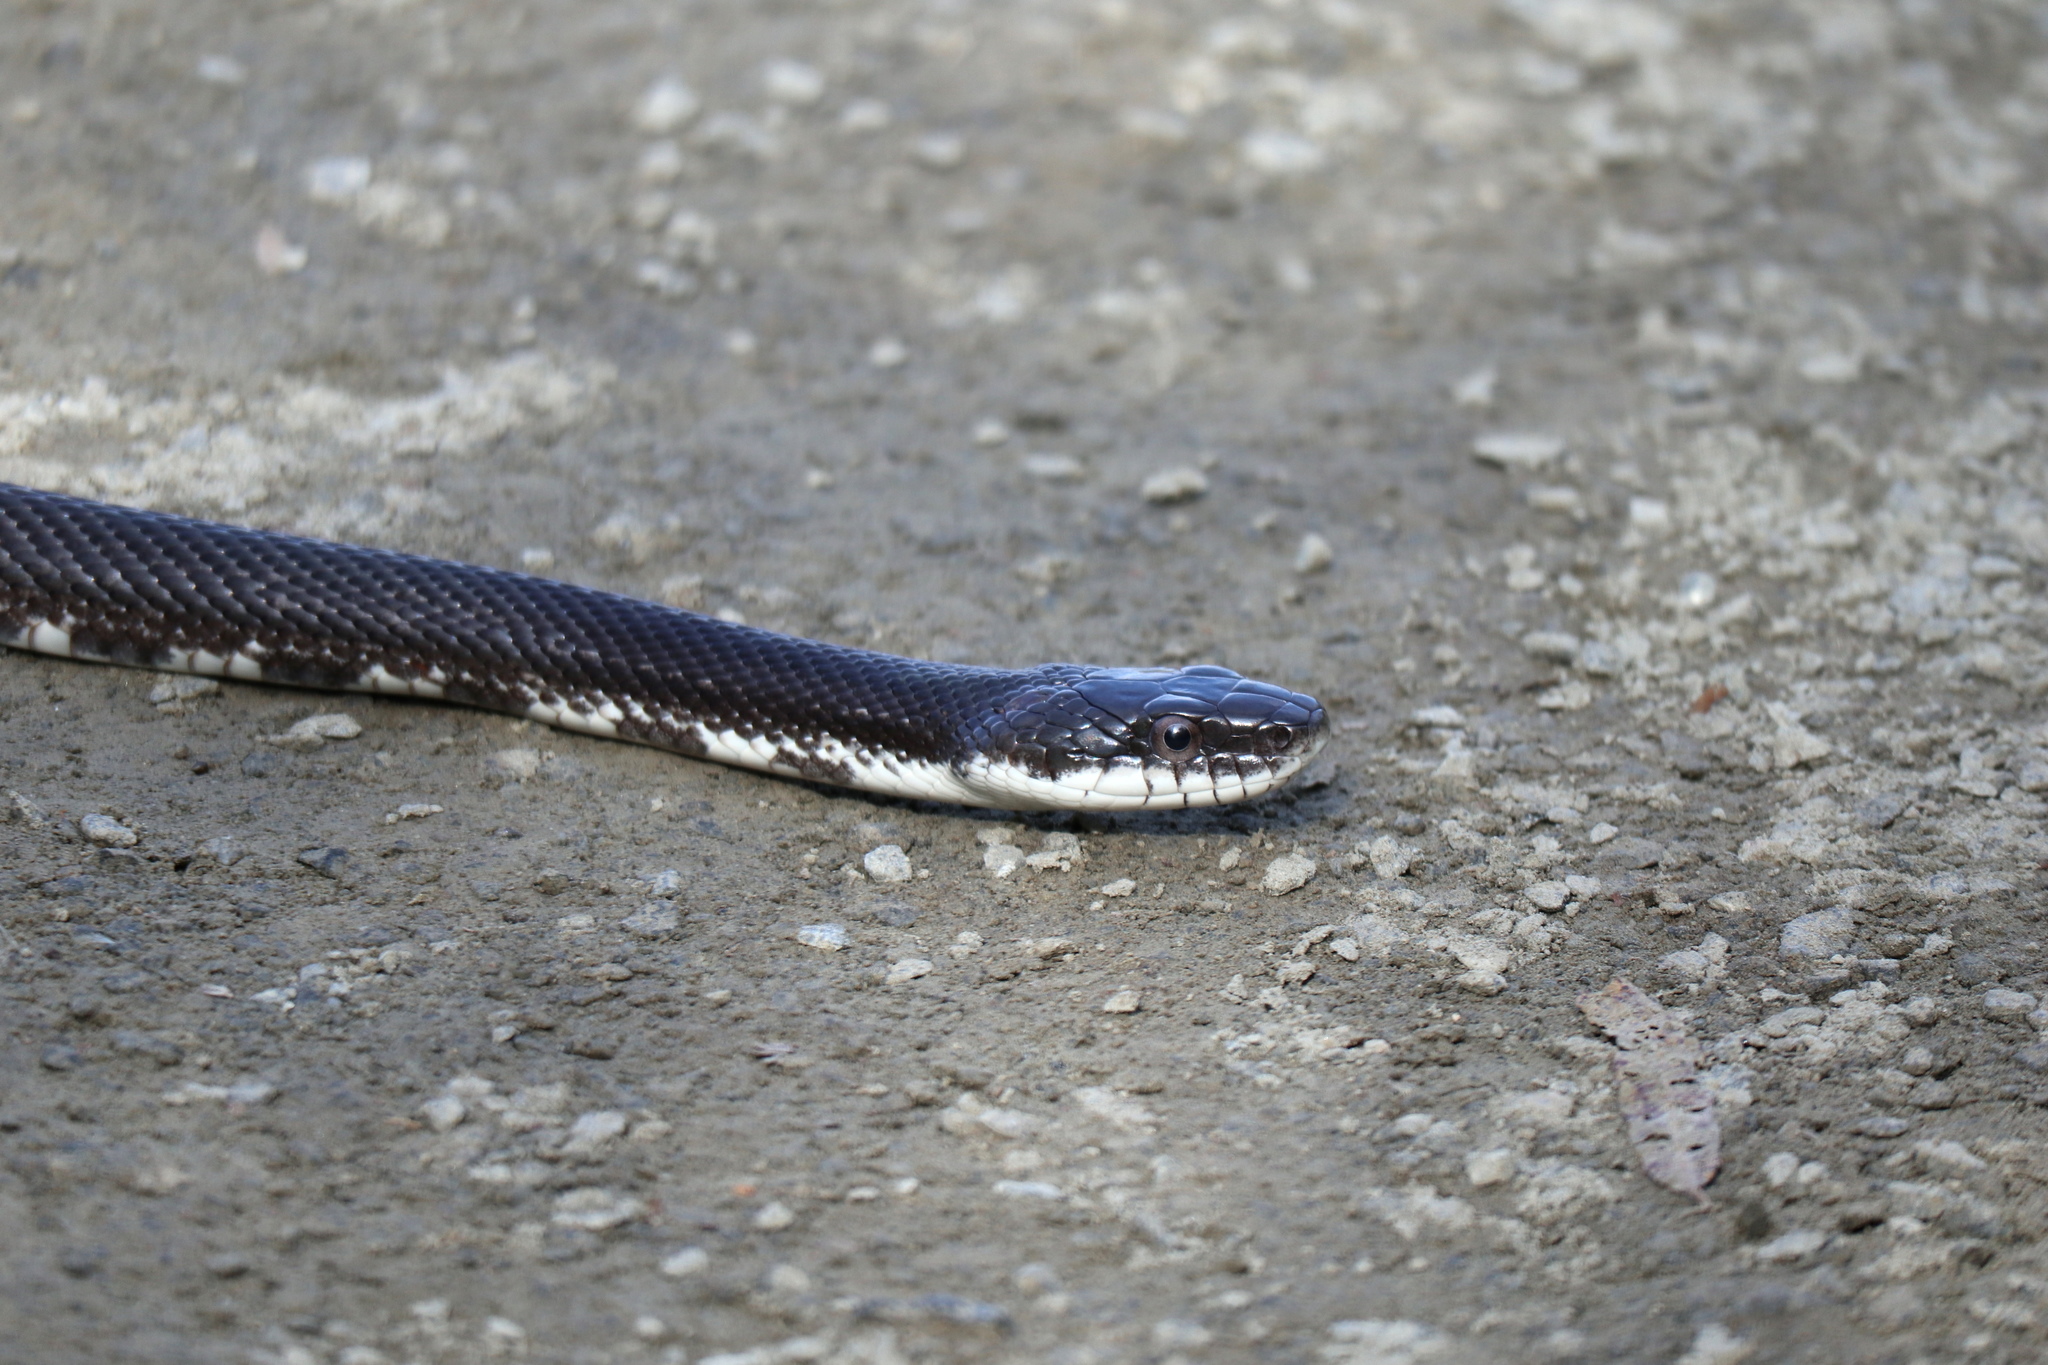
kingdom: Animalia
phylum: Chordata
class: Squamata
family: Colubridae
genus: Pantherophis
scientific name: Pantherophis alleghaniensis
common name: Eastern rat snake
